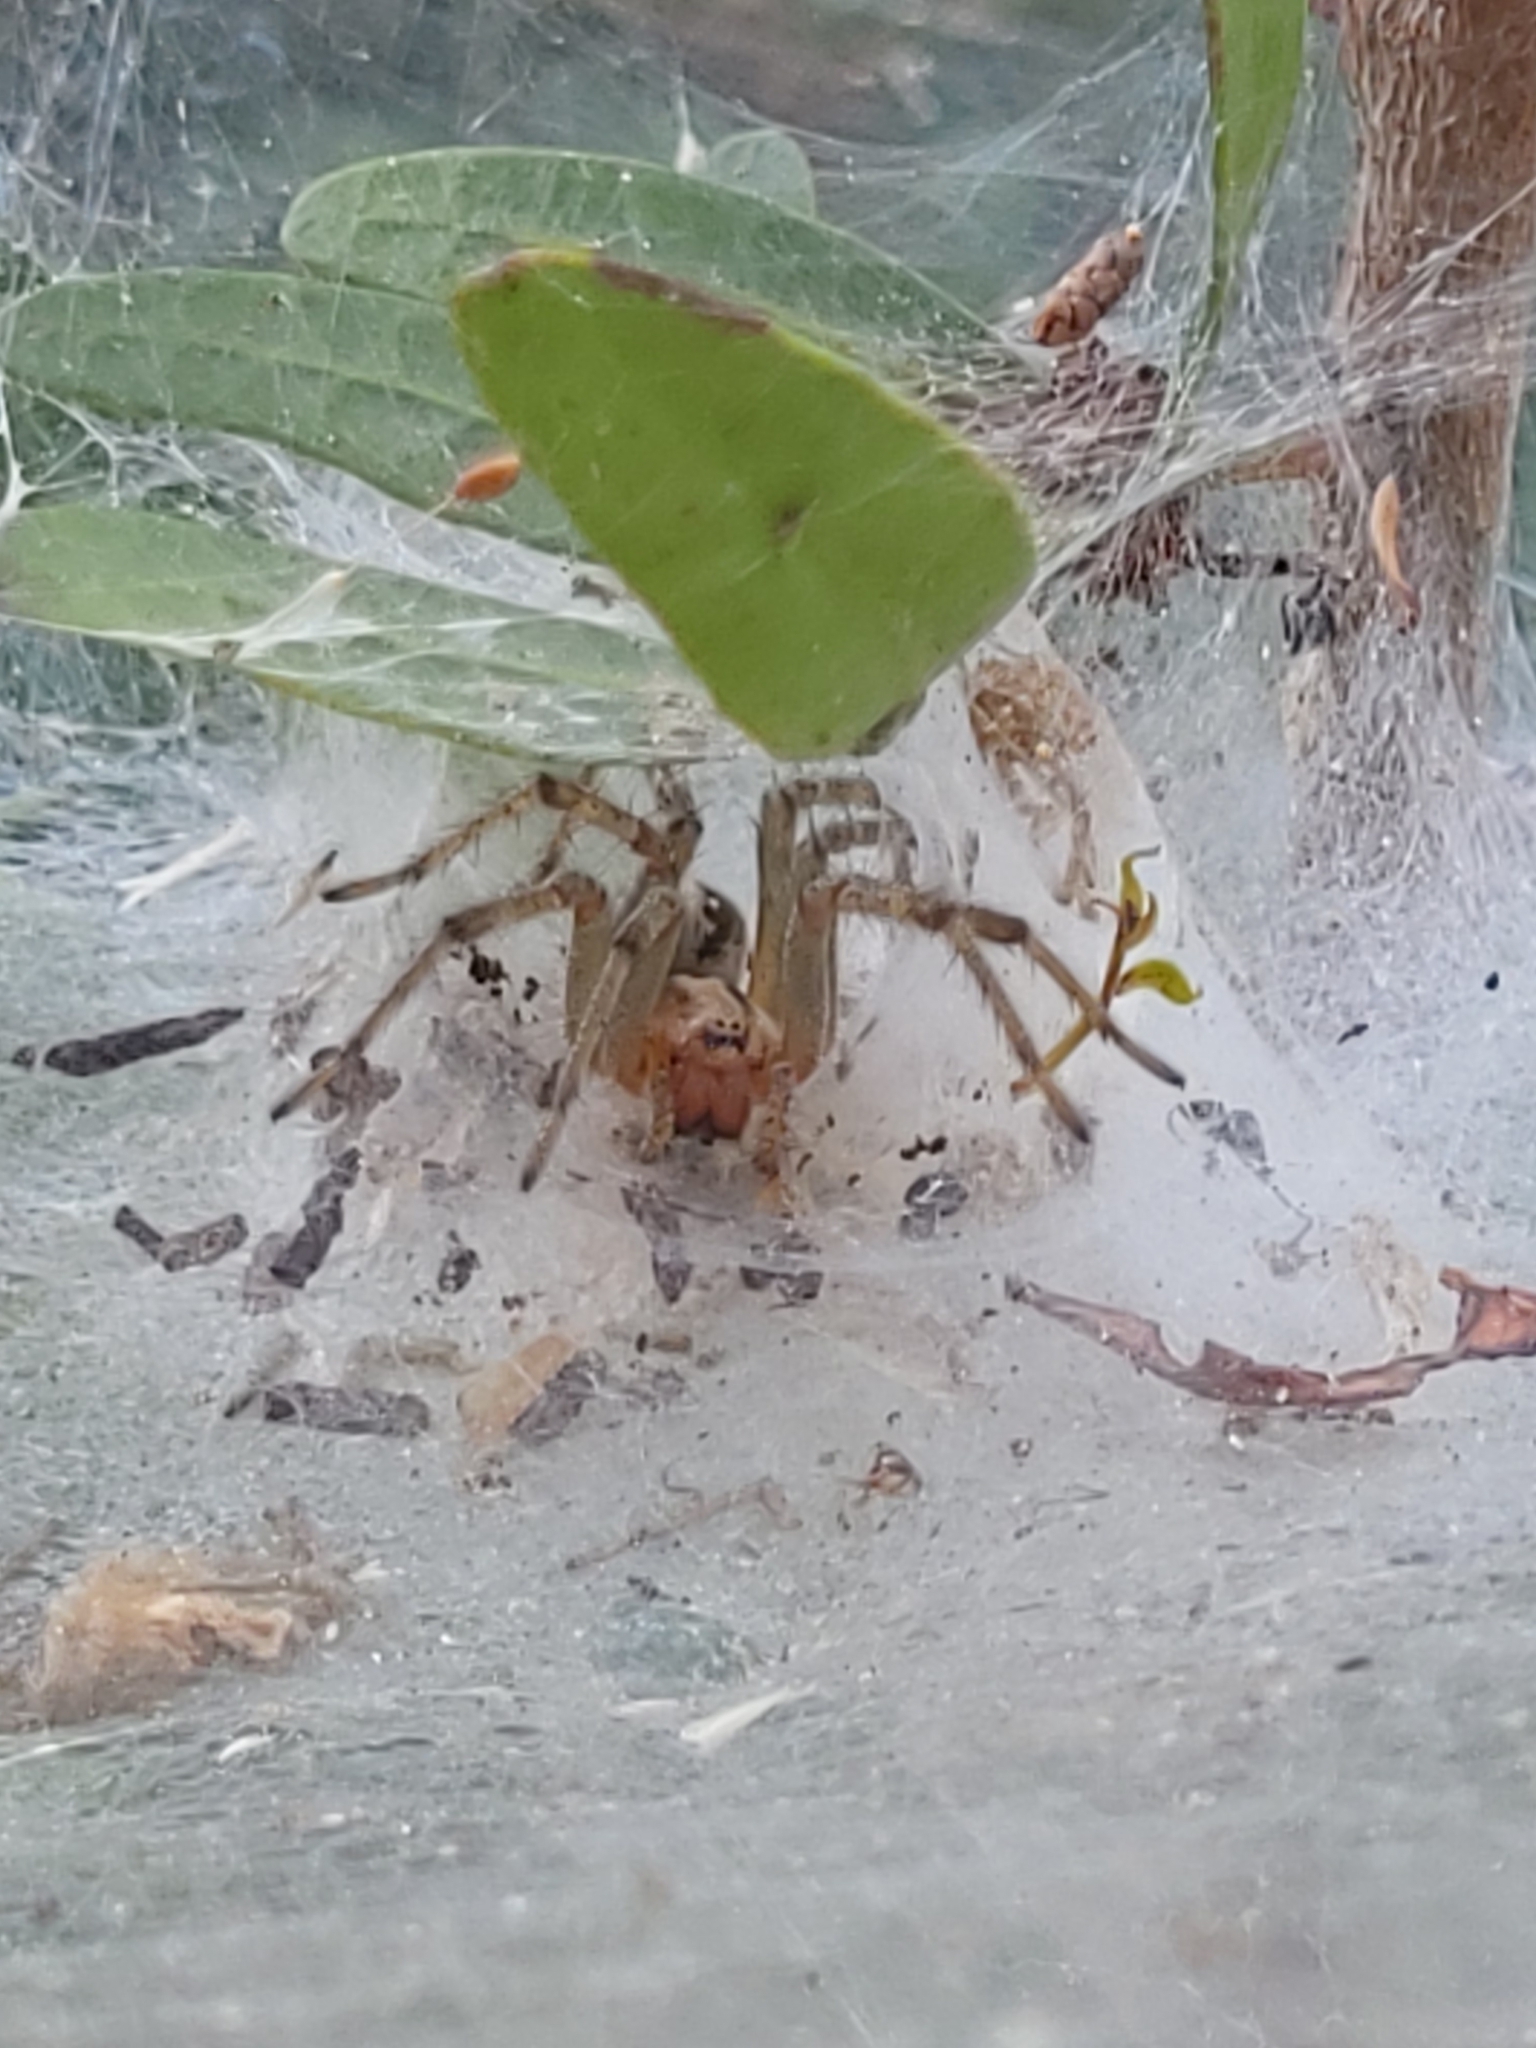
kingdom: Animalia
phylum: Arthropoda
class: Arachnida
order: Araneae
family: Agelenidae
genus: Agelena
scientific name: Agelena
